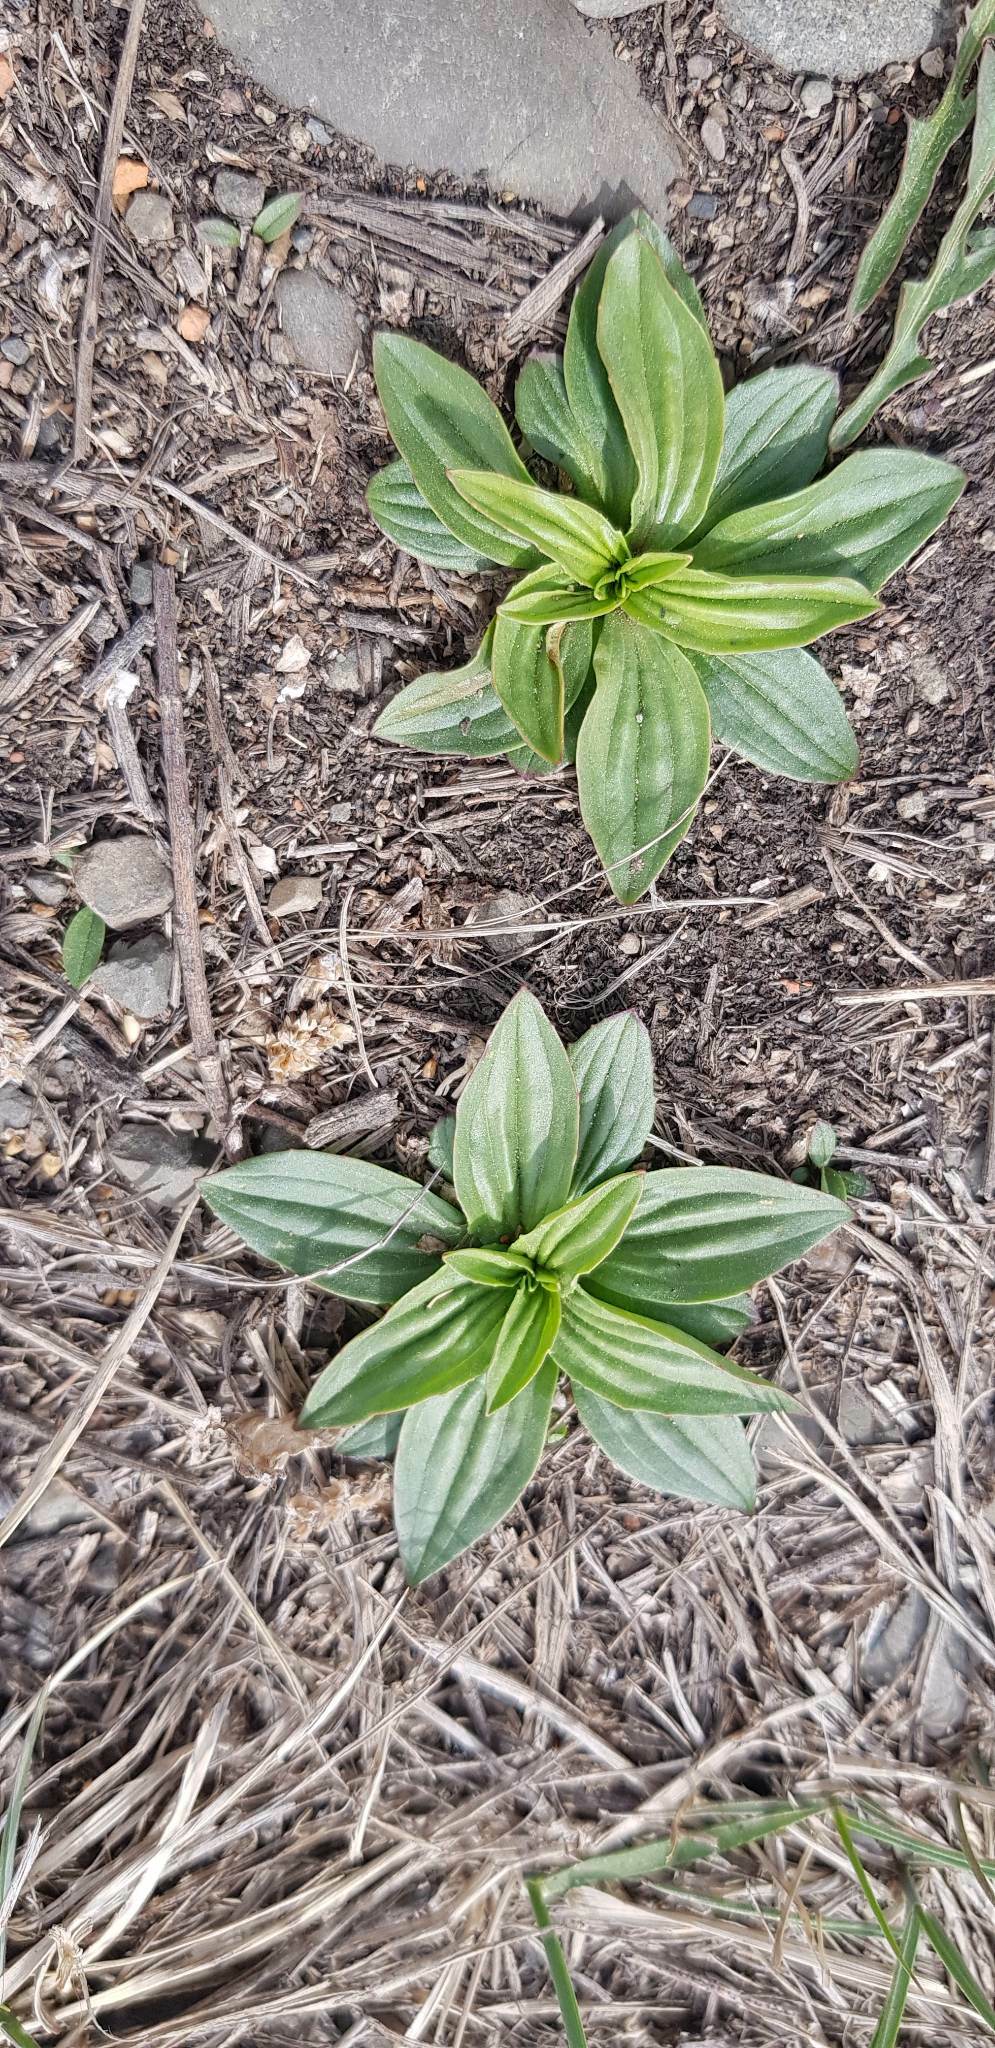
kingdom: Plantae
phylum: Tracheophyta
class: Magnoliopsida
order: Lamiales
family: Plantaginaceae
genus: Plantago
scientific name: Plantago depressa
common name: Depressed plantain
